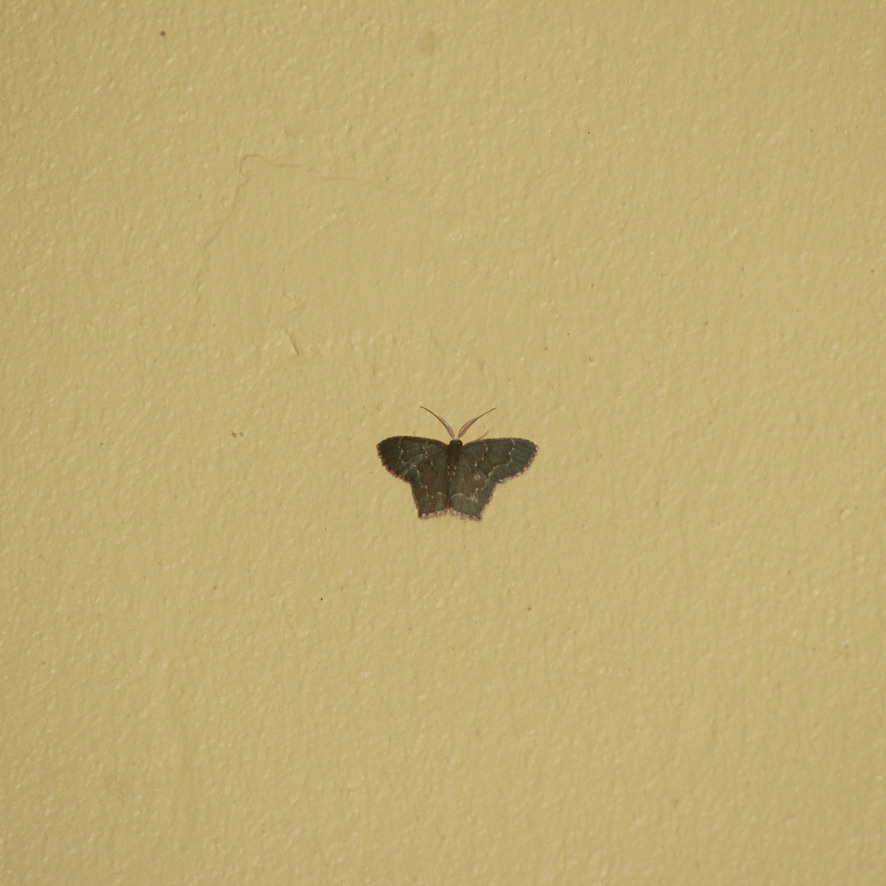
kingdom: Animalia
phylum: Arthropoda
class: Insecta
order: Lepidoptera
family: Geometridae
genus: Chloropteryx
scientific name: Chloropteryx punctilinea
